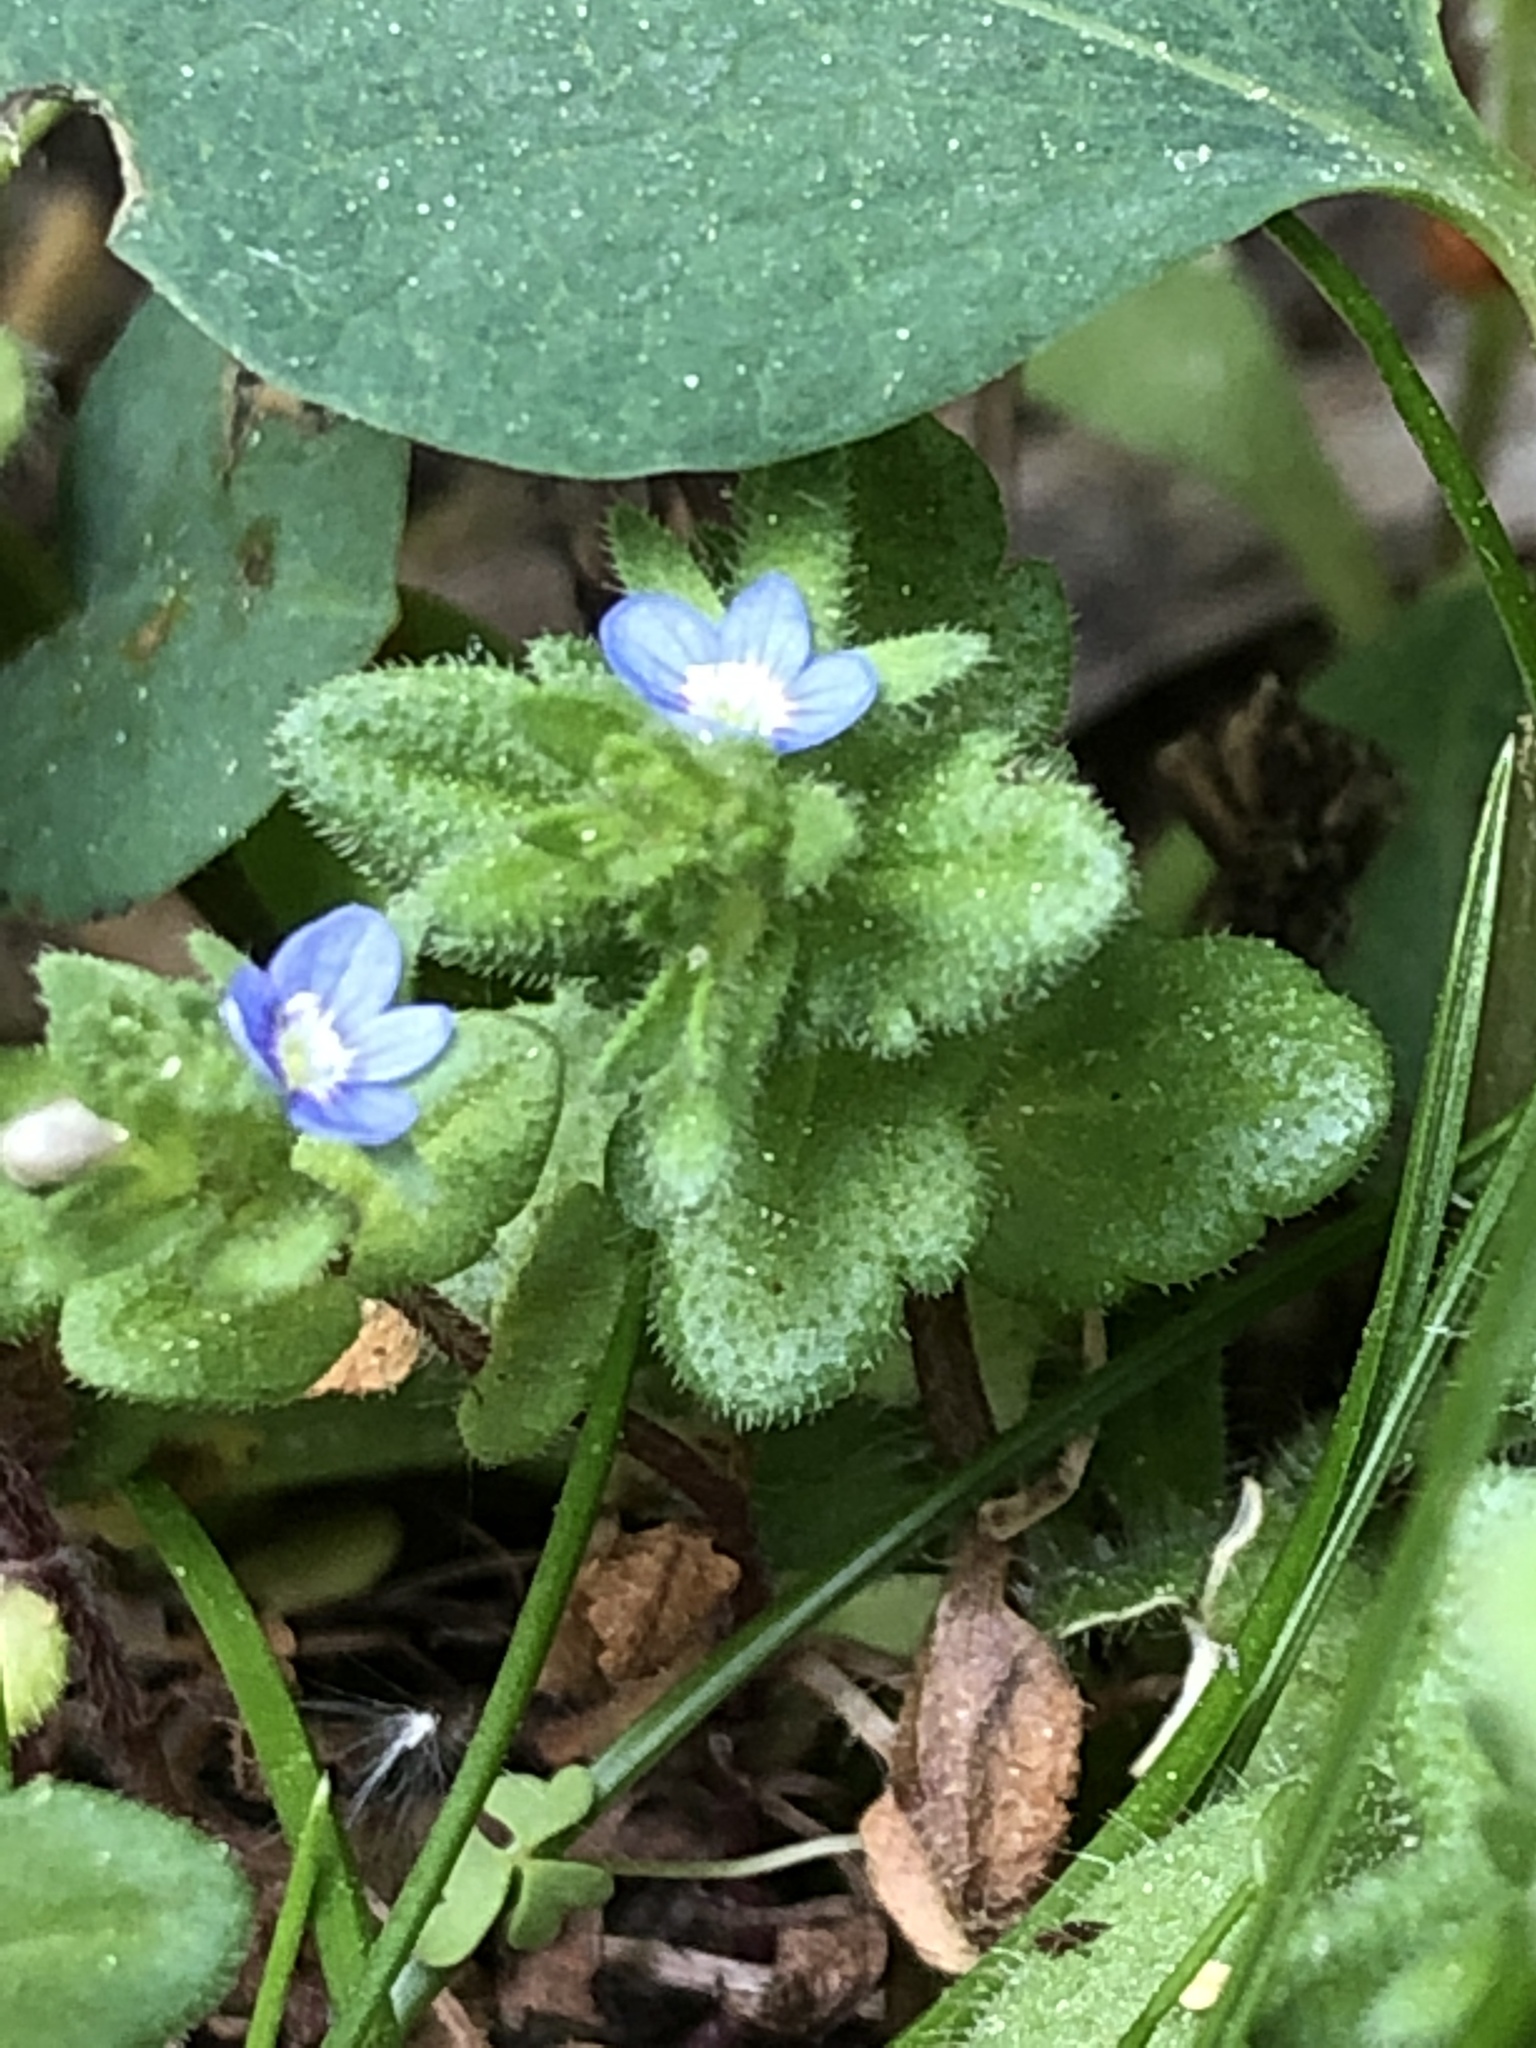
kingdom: Plantae
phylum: Tracheophyta
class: Magnoliopsida
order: Lamiales
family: Plantaginaceae
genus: Veronica
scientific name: Veronica arvensis
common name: Corn speedwell
